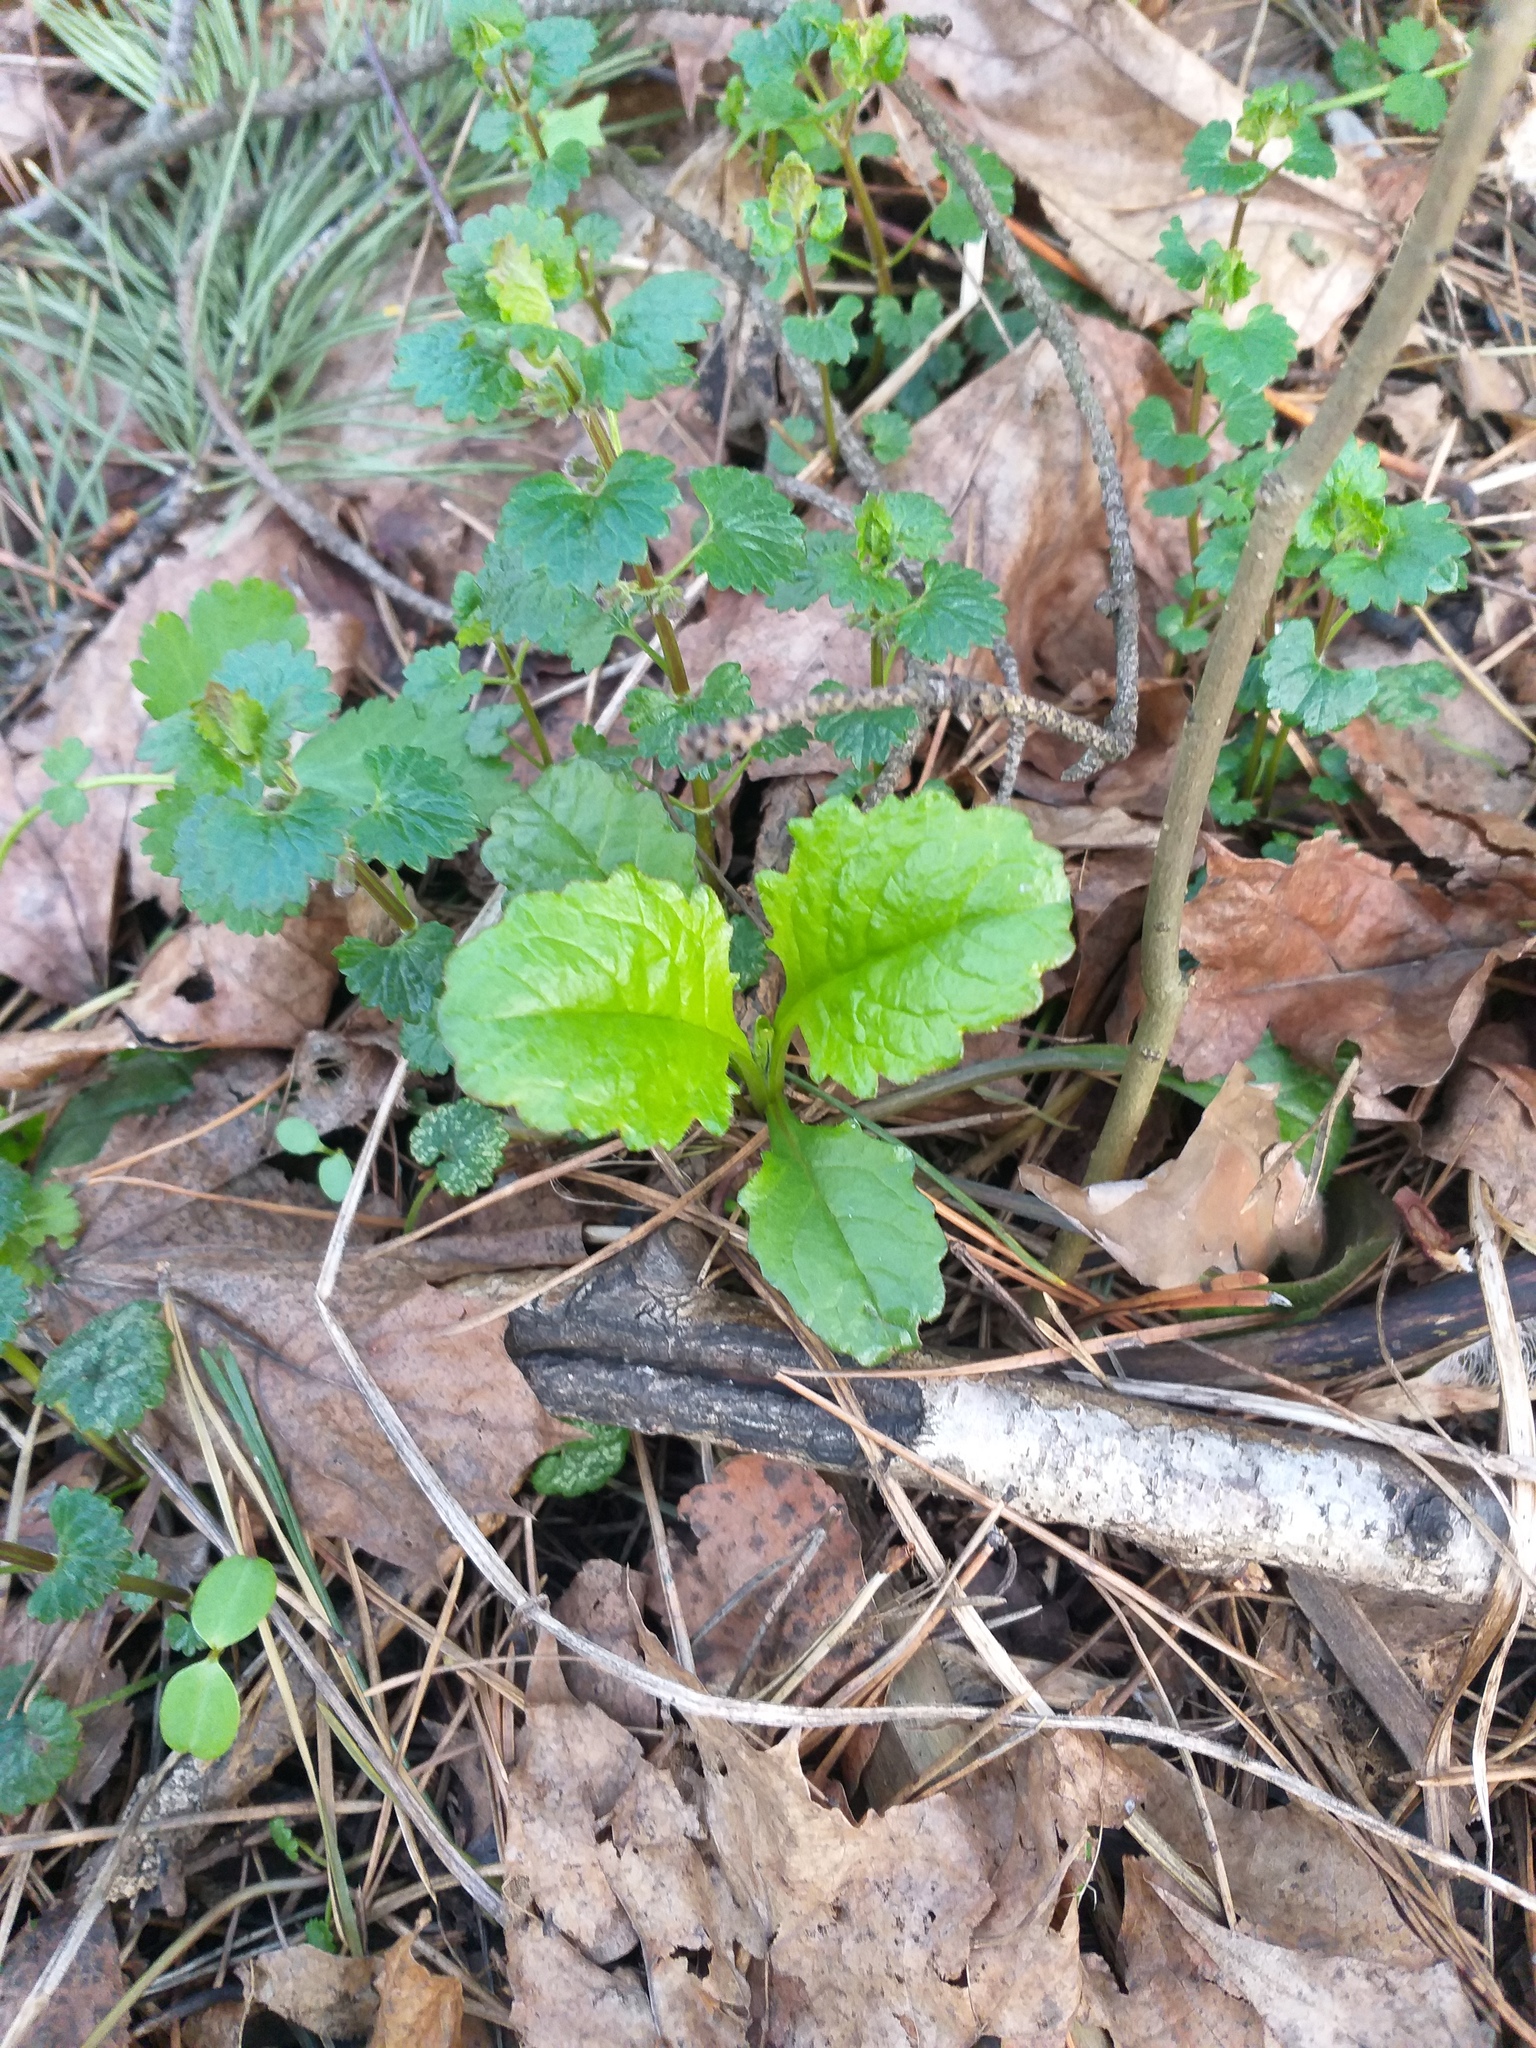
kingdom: Plantae
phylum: Tracheophyta
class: Magnoliopsida
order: Lamiales
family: Lamiaceae
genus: Ajuga
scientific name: Ajuga reptans
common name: Bugle
